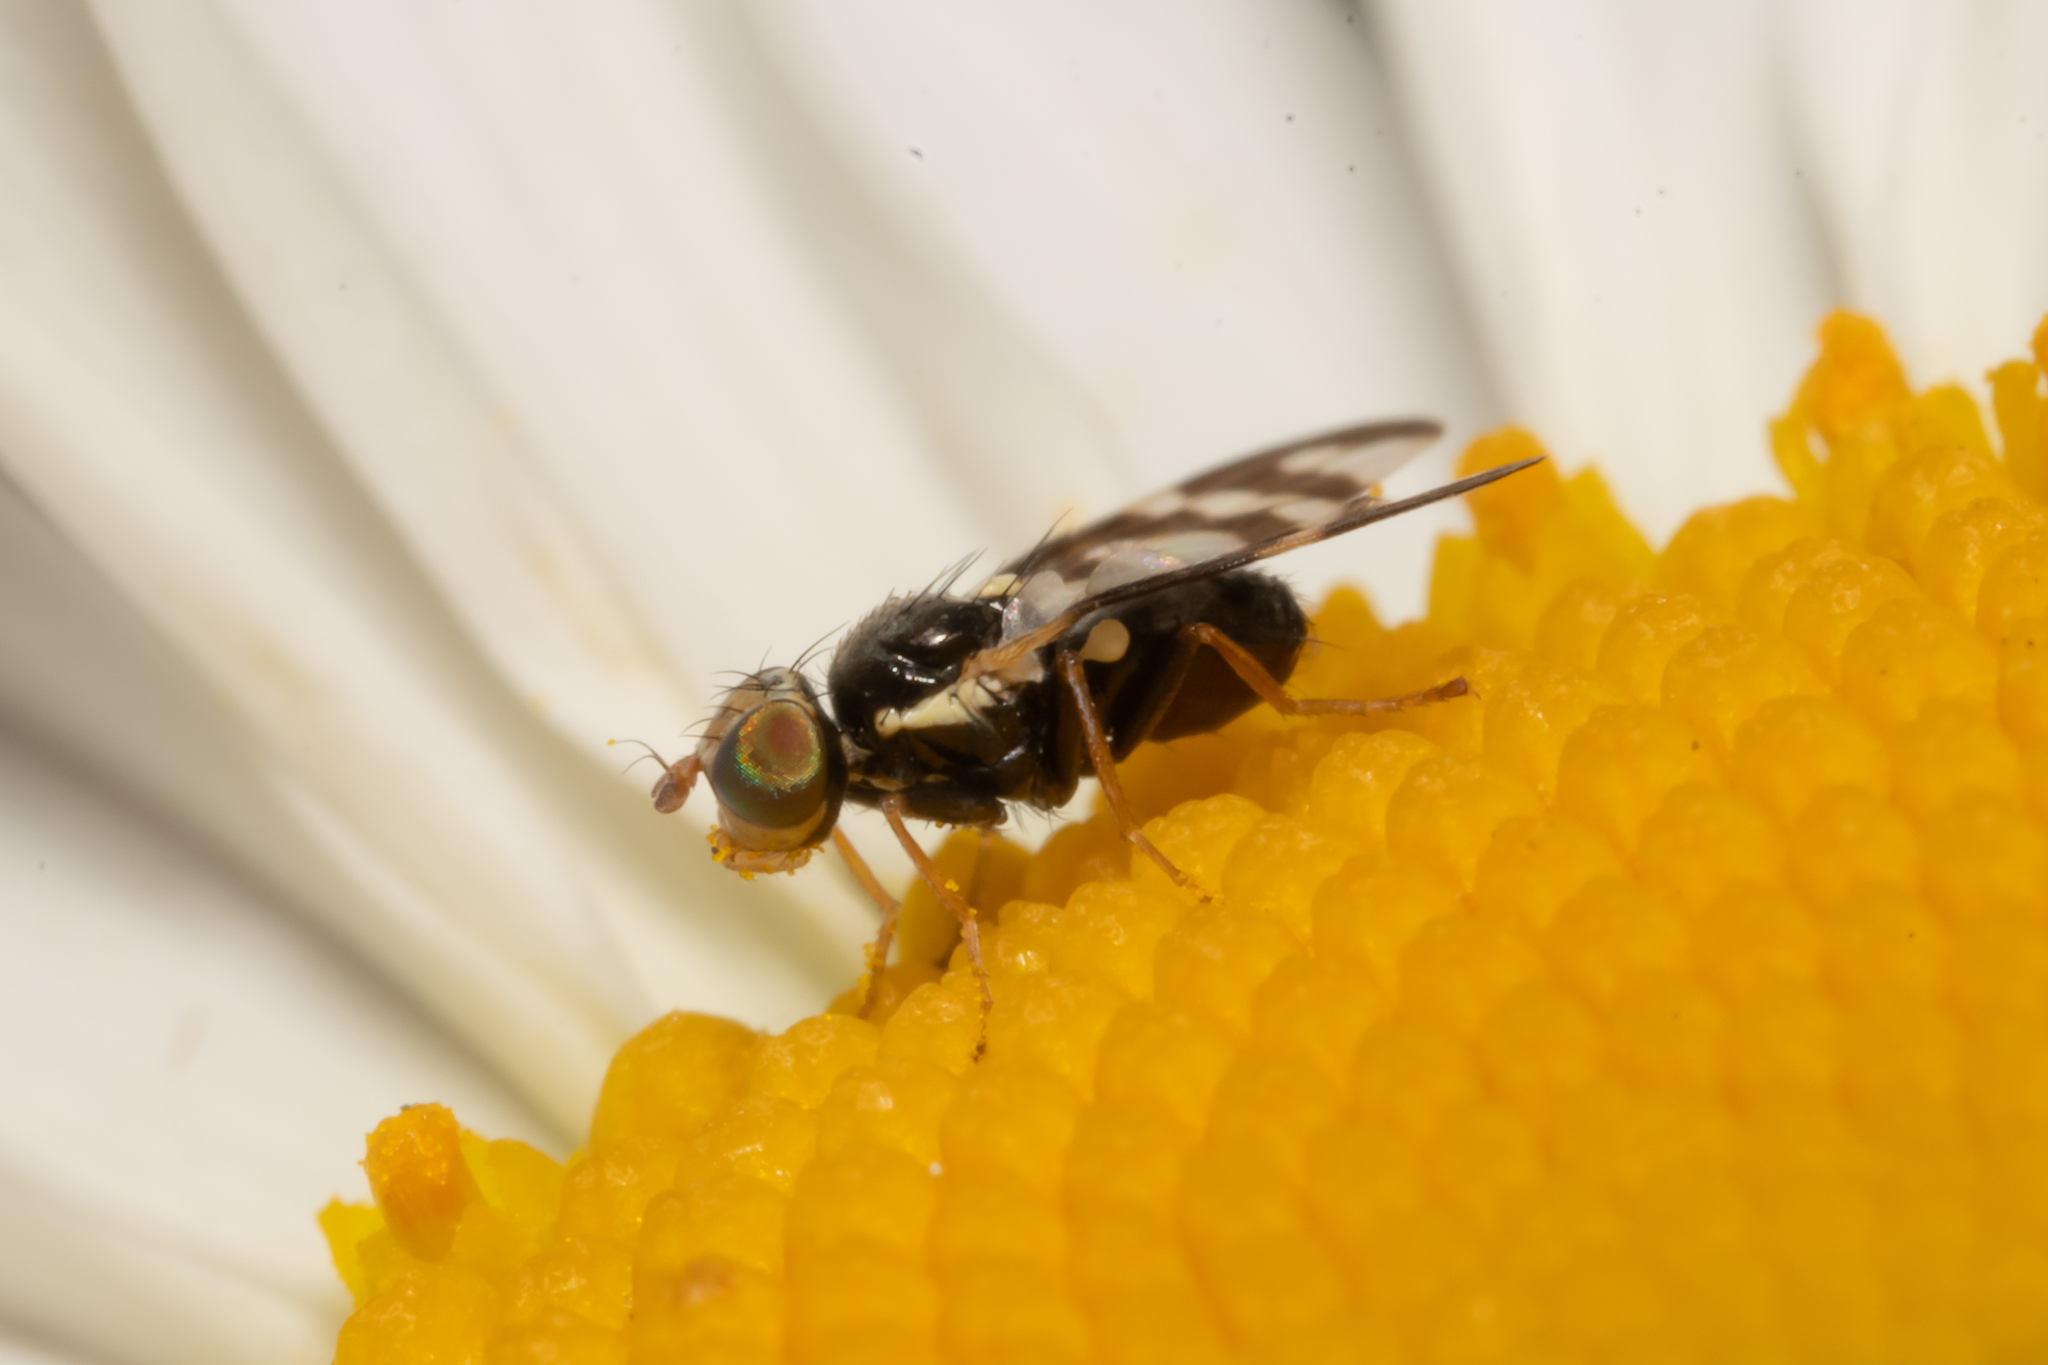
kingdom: Animalia
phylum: Arthropoda
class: Insecta
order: Diptera
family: Tephritidae
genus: Urophora
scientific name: Urophora quadrifasciata
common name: Knapweed seedhead fly
